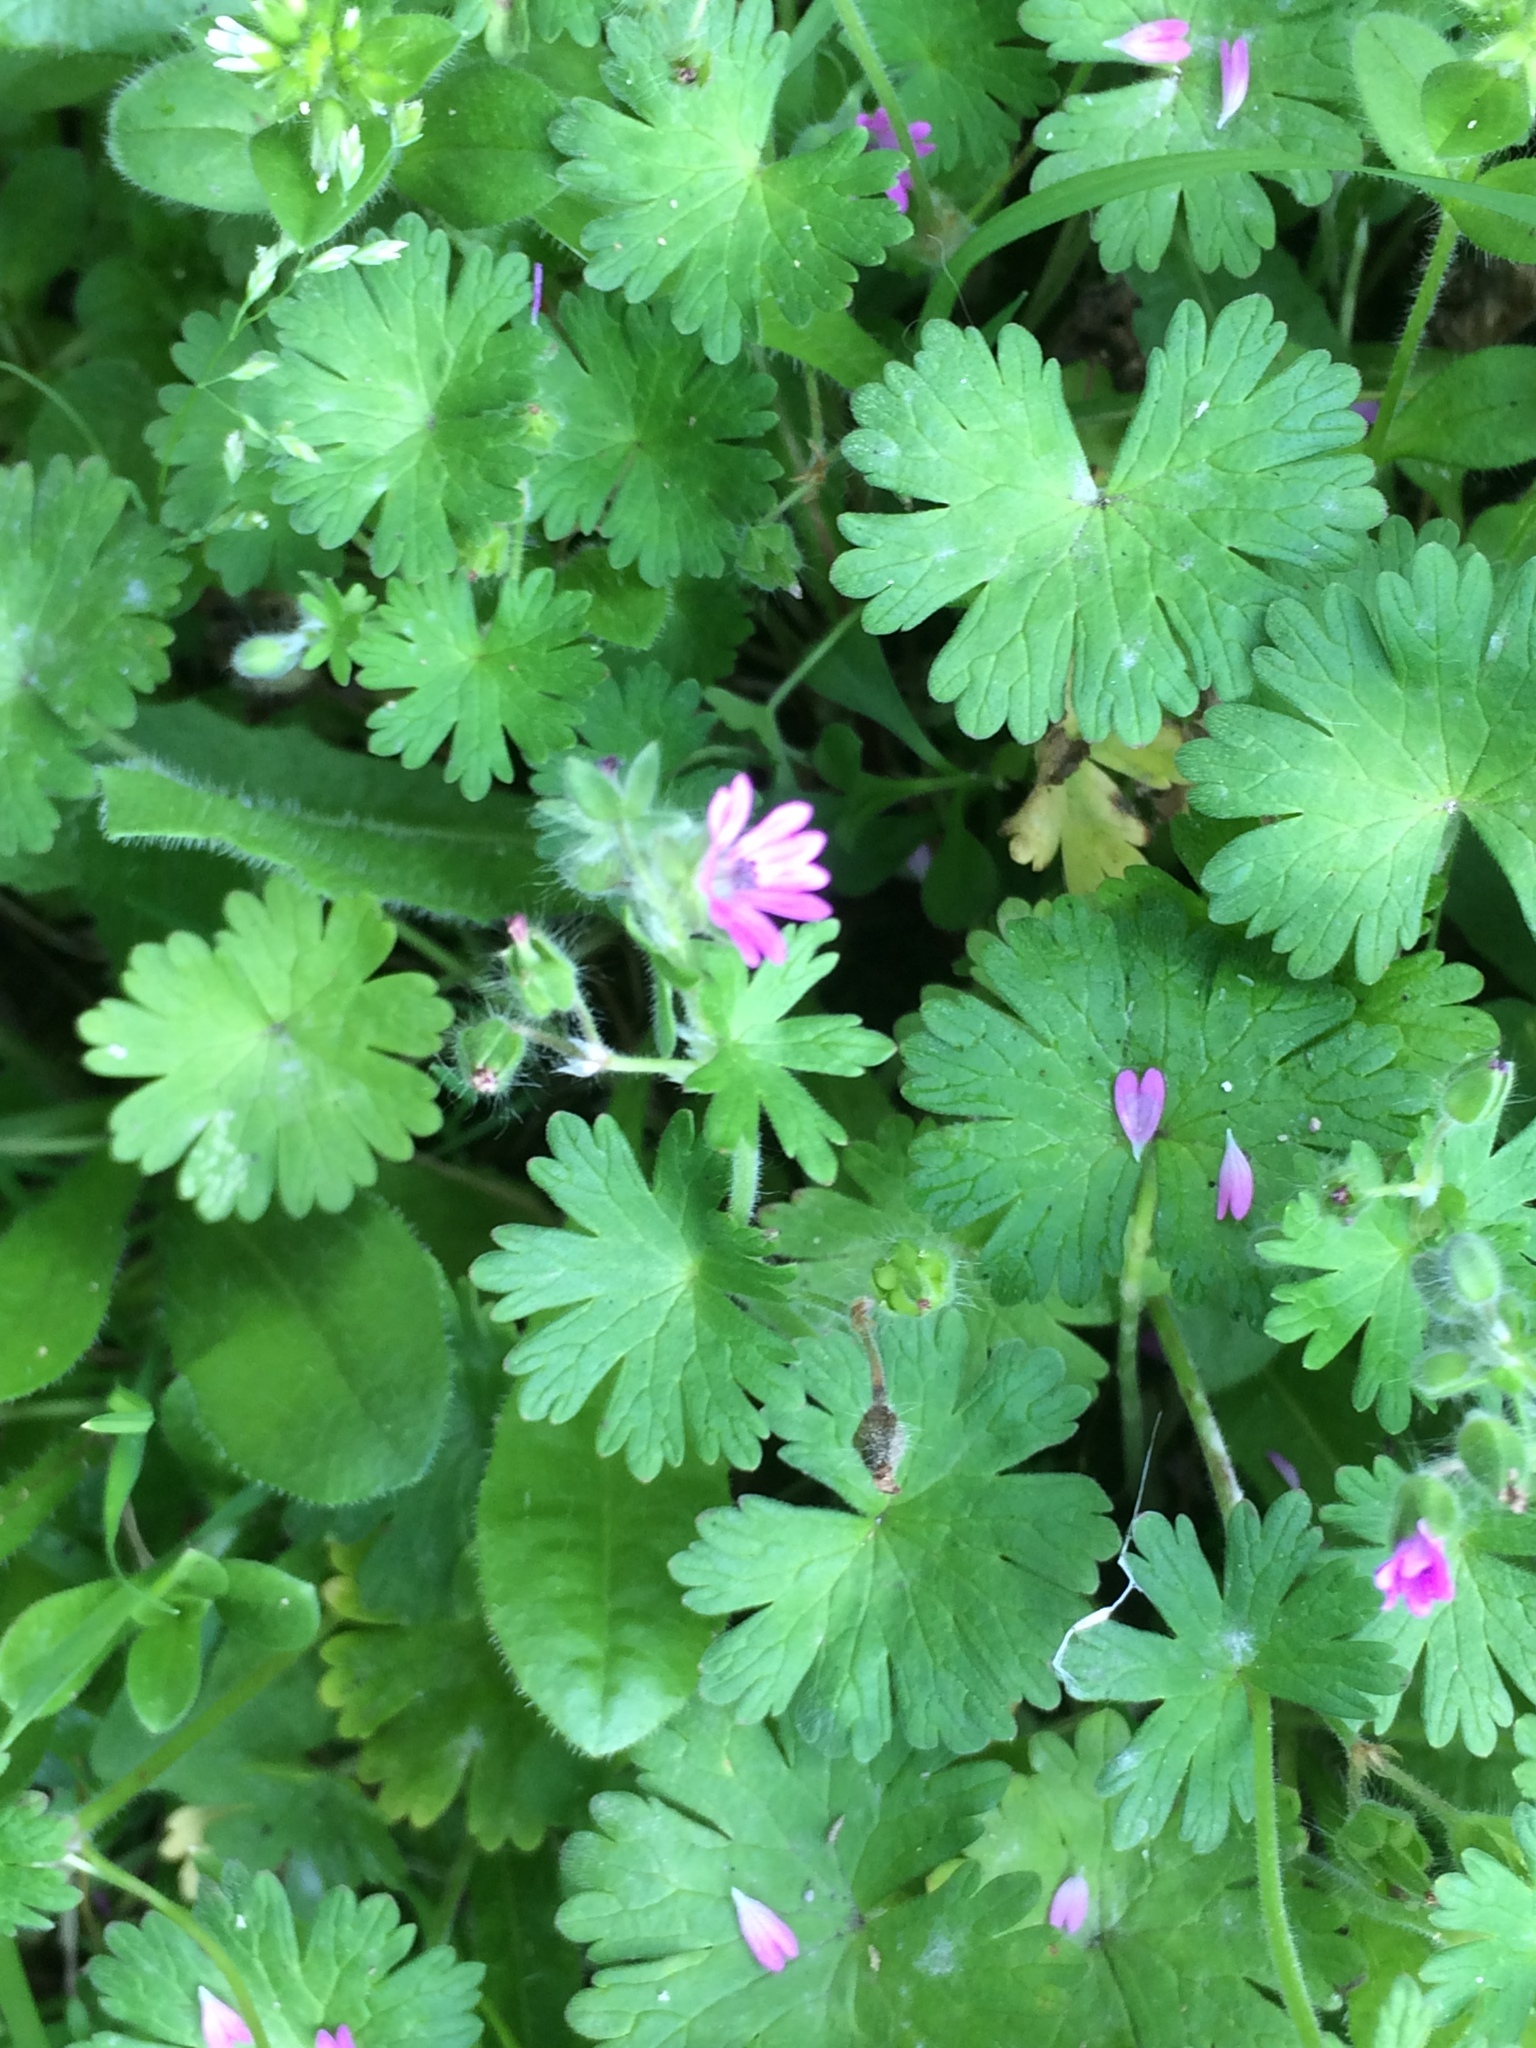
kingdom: Plantae
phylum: Tracheophyta
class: Magnoliopsida
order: Geraniales
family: Geraniaceae
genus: Geranium
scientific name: Geranium molle
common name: Dove's-foot crane's-bill
